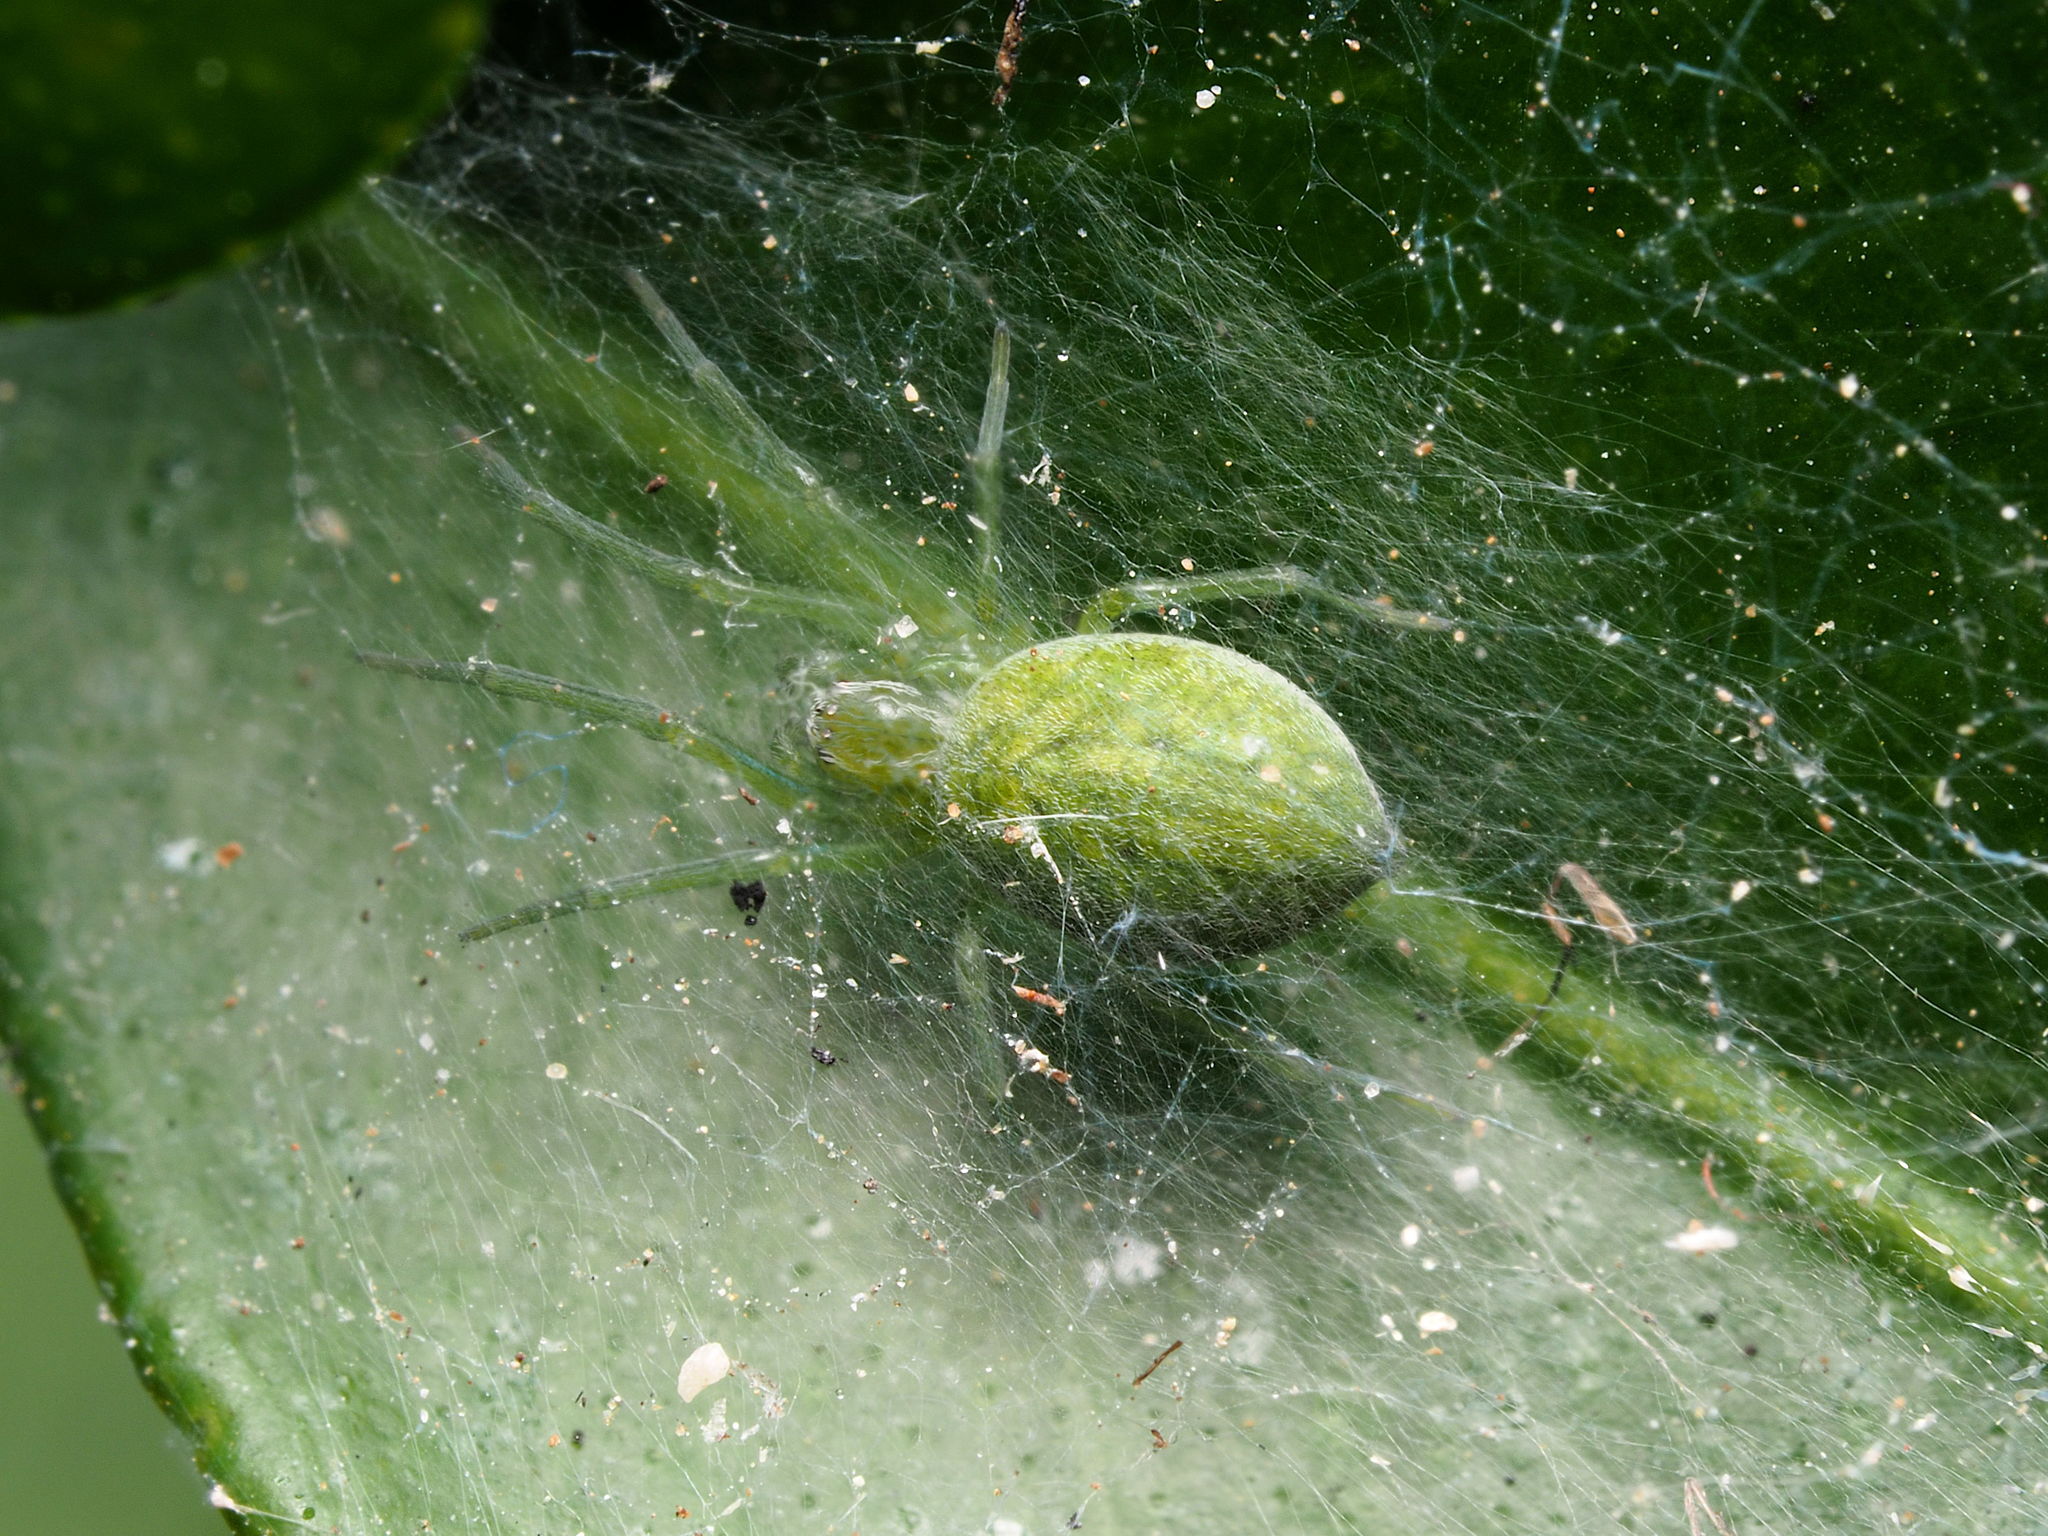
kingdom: Animalia
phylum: Arthropoda
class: Arachnida
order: Araneae
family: Dictynidae
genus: Nigma
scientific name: Nigma walckenaeri
